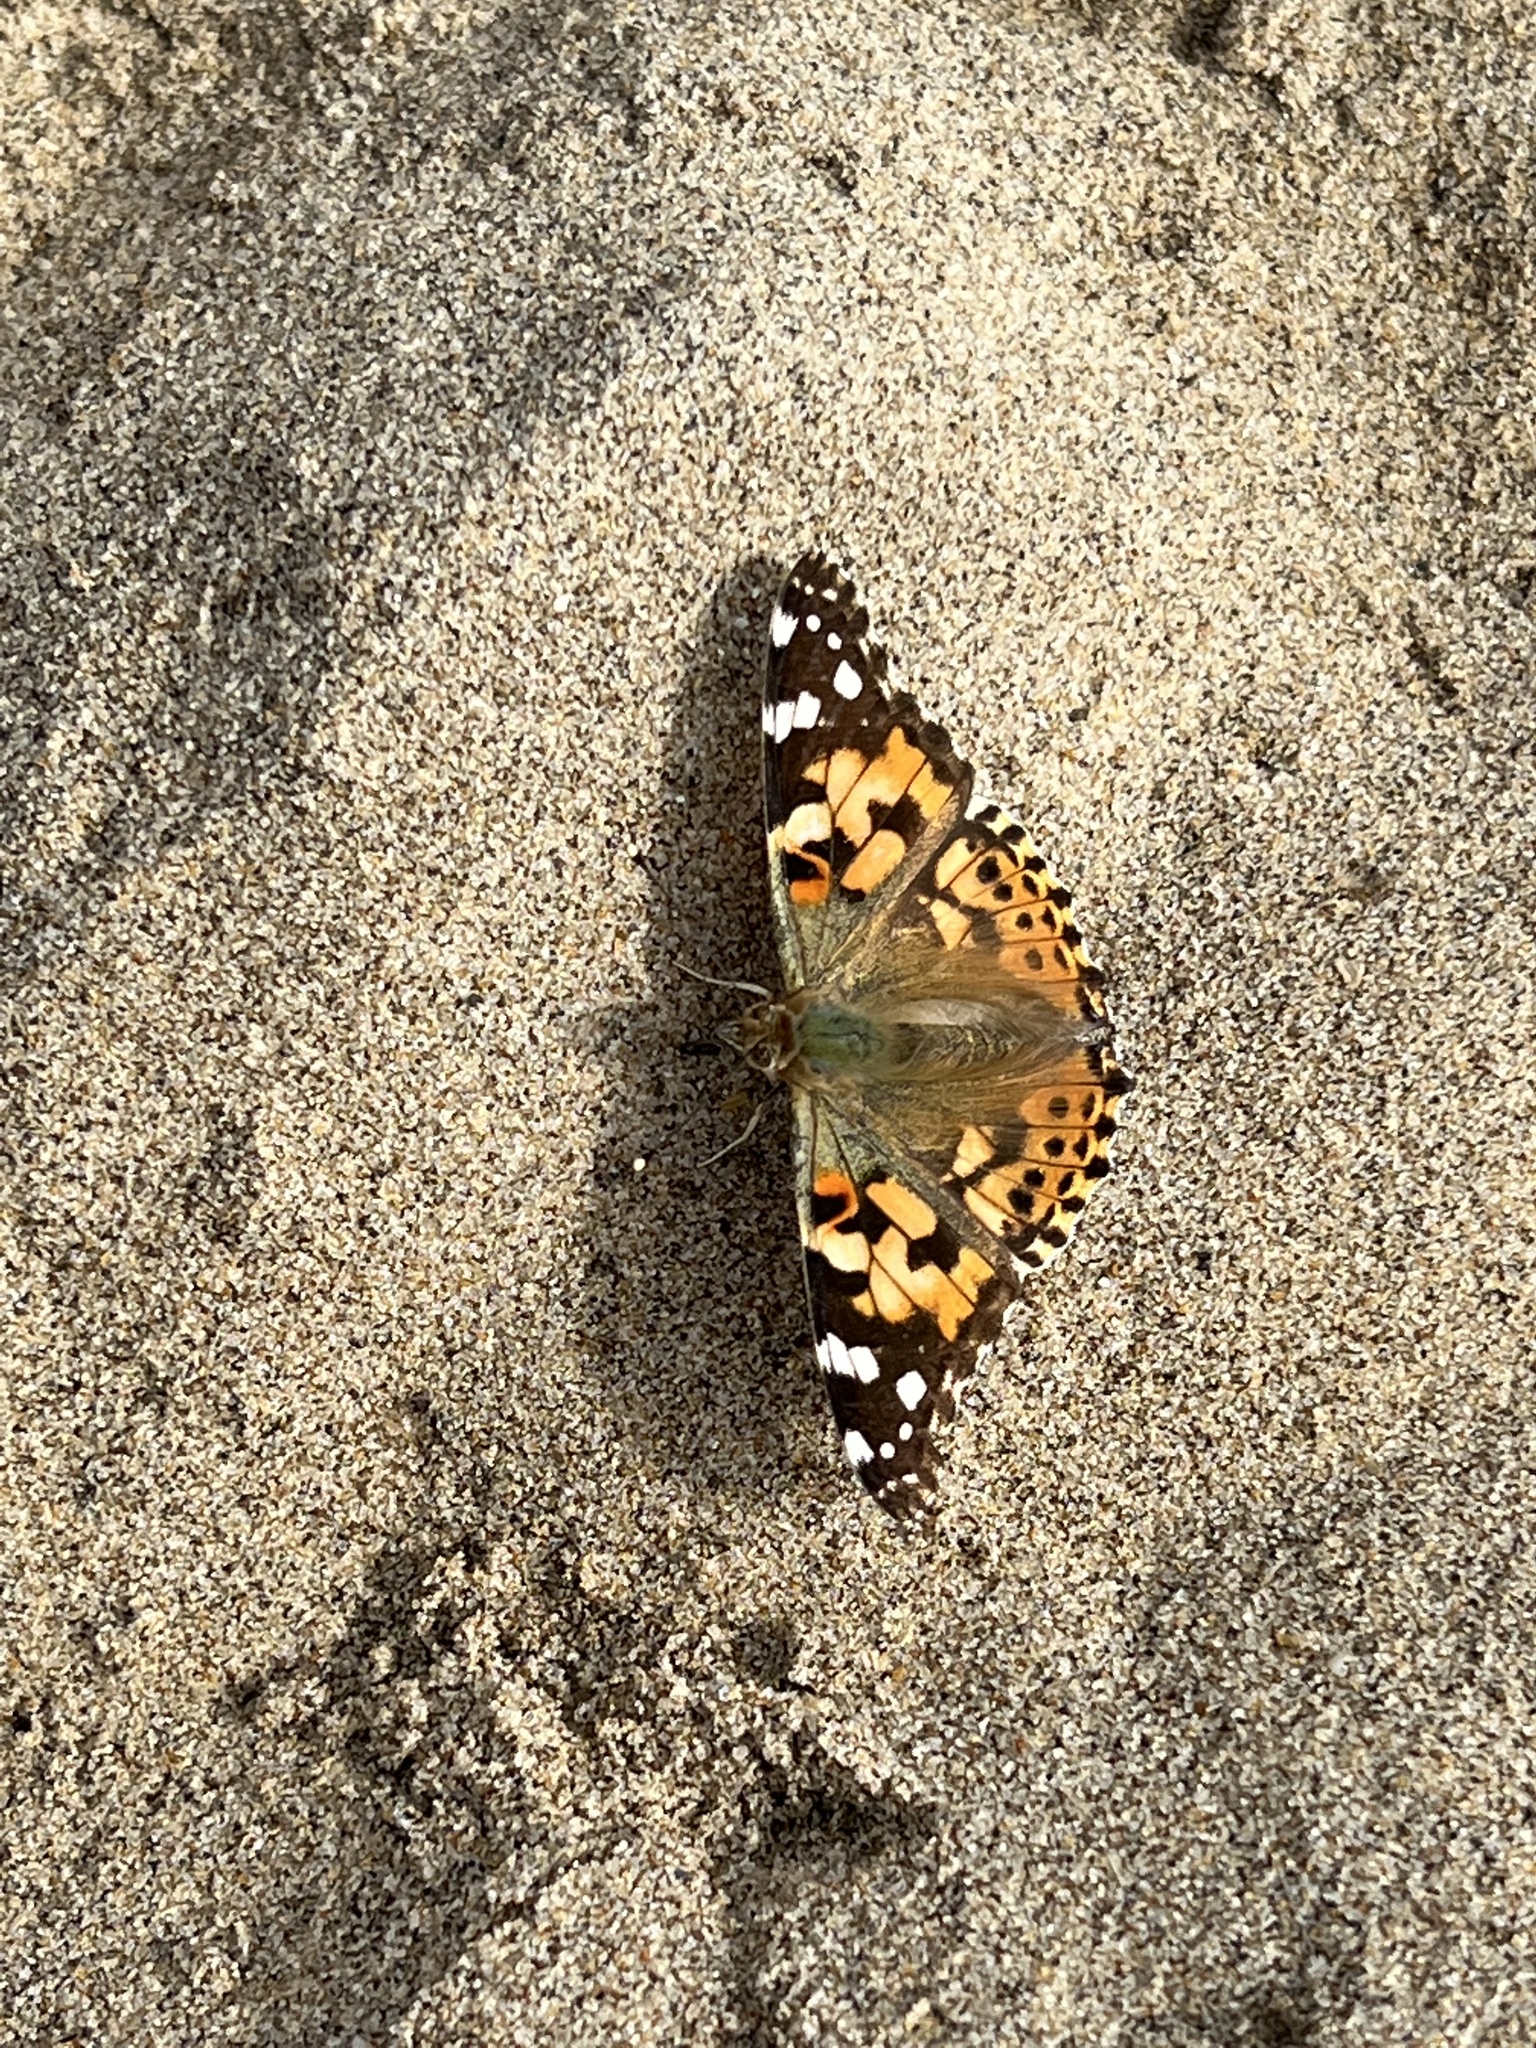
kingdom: Animalia
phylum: Arthropoda
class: Insecta
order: Lepidoptera
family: Nymphalidae
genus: Vanessa
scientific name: Vanessa cardui
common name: Painted lady
